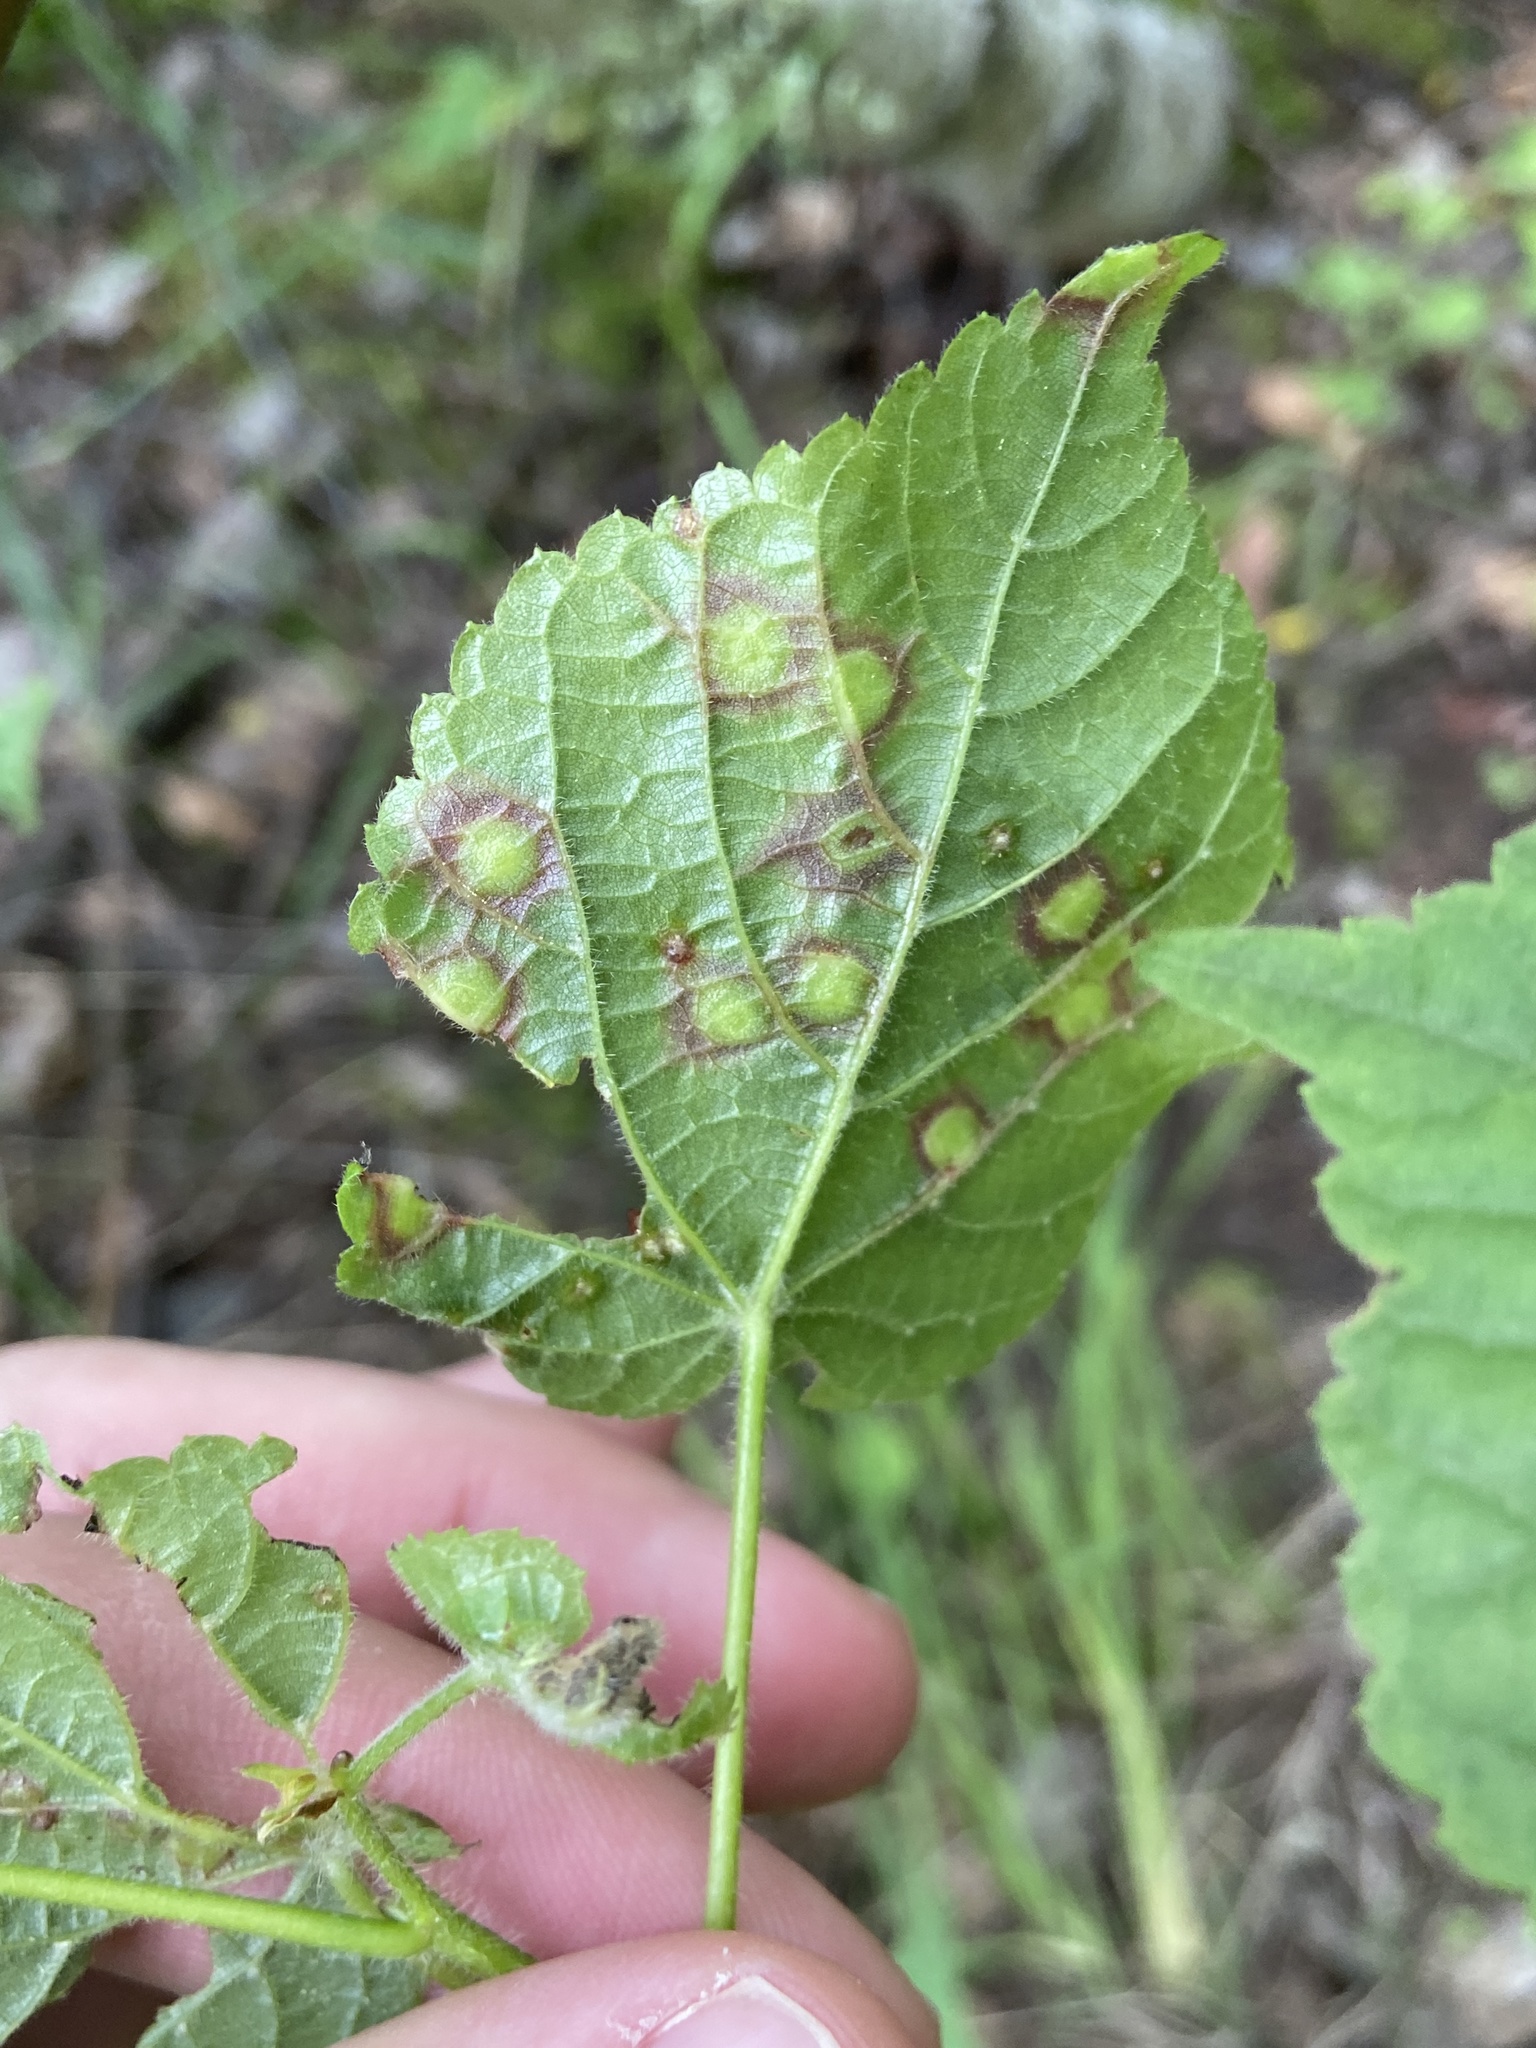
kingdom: Animalia
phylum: Arthropoda
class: Insecta
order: Diptera
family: Cecidomyiidae
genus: Physemocecis
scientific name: Physemocecis hartigi
